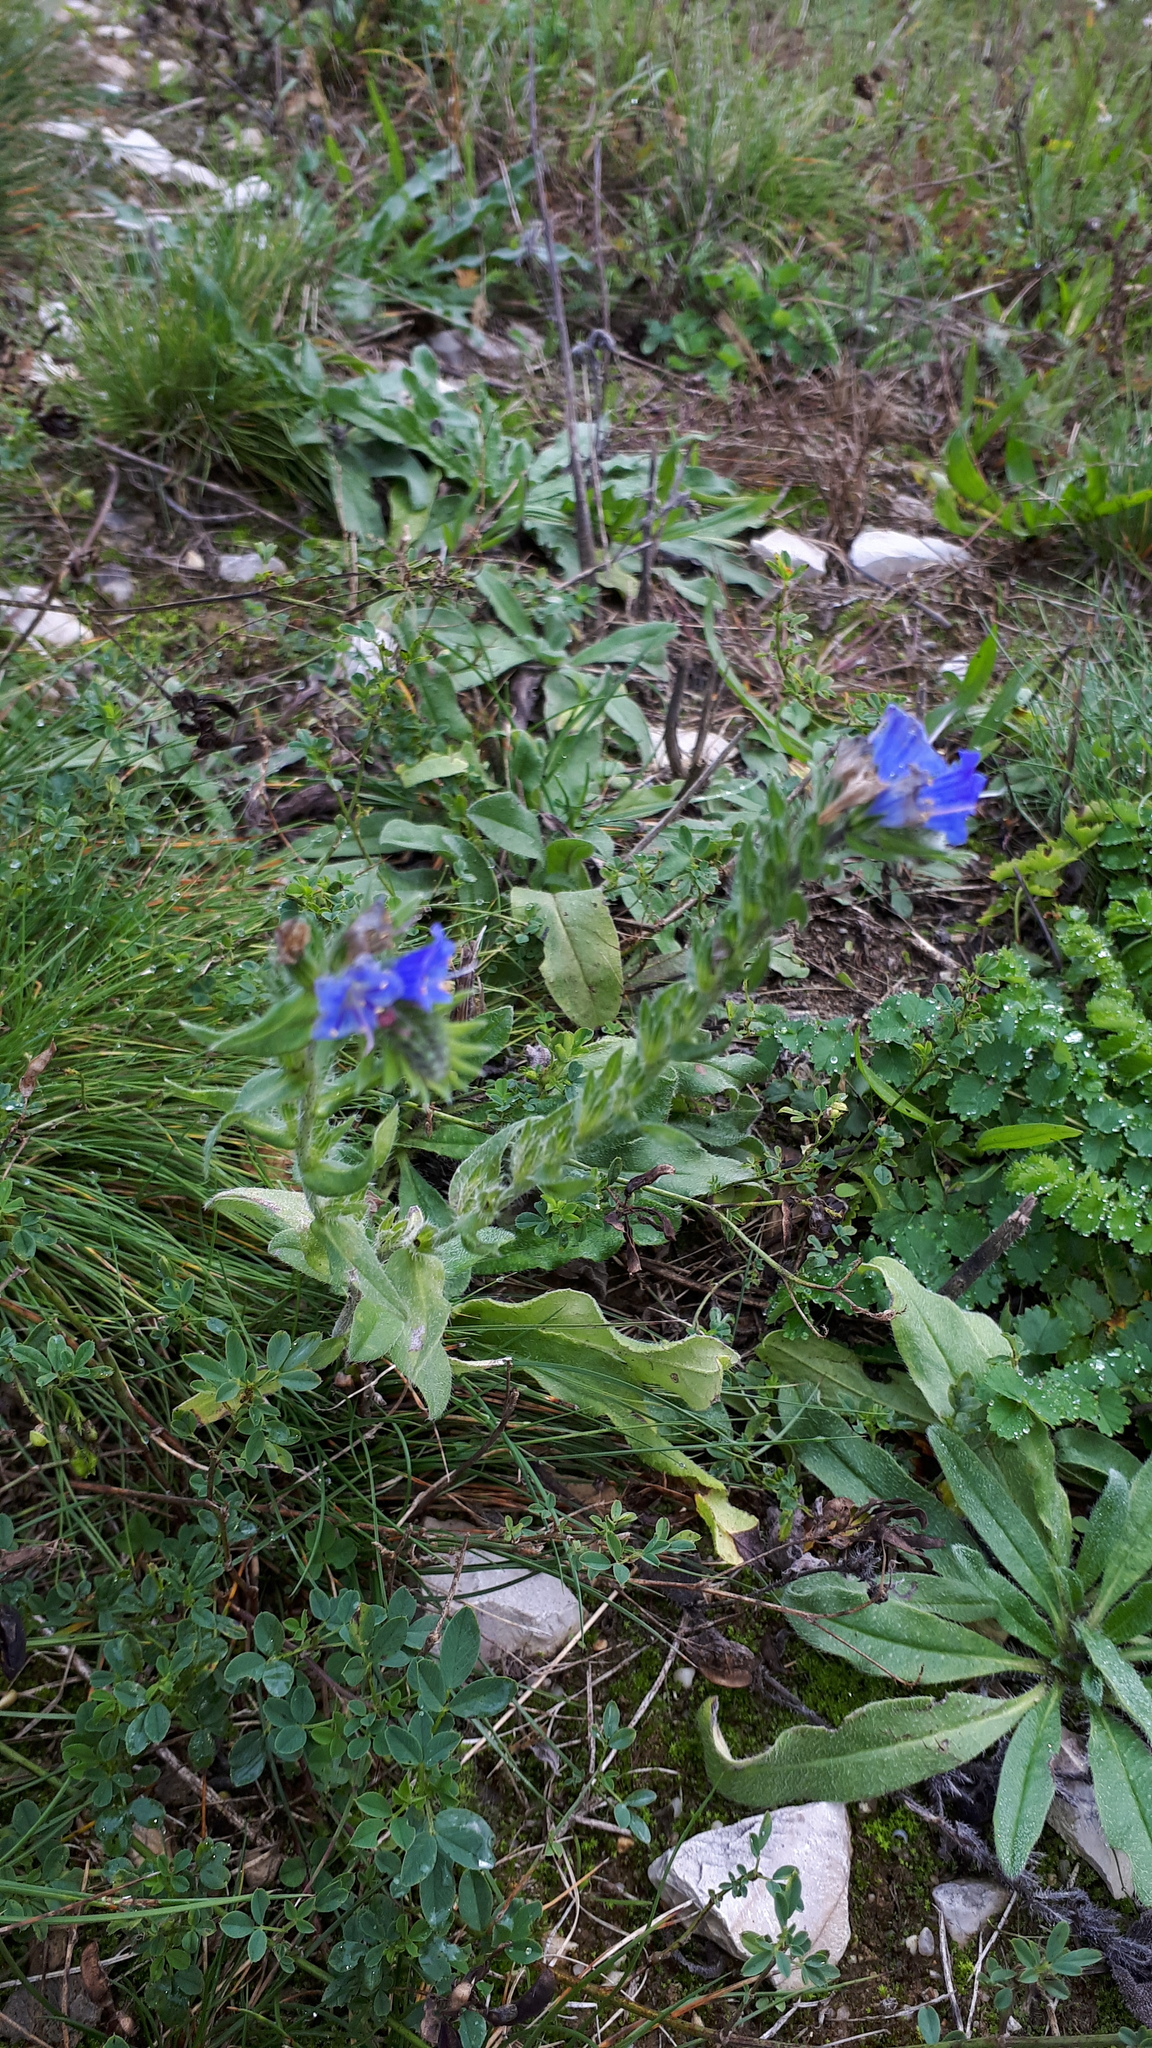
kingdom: Plantae
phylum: Tracheophyta
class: Magnoliopsida
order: Boraginales
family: Boraginaceae
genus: Echium
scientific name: Echium vulgare
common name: Common viper's bugloss
